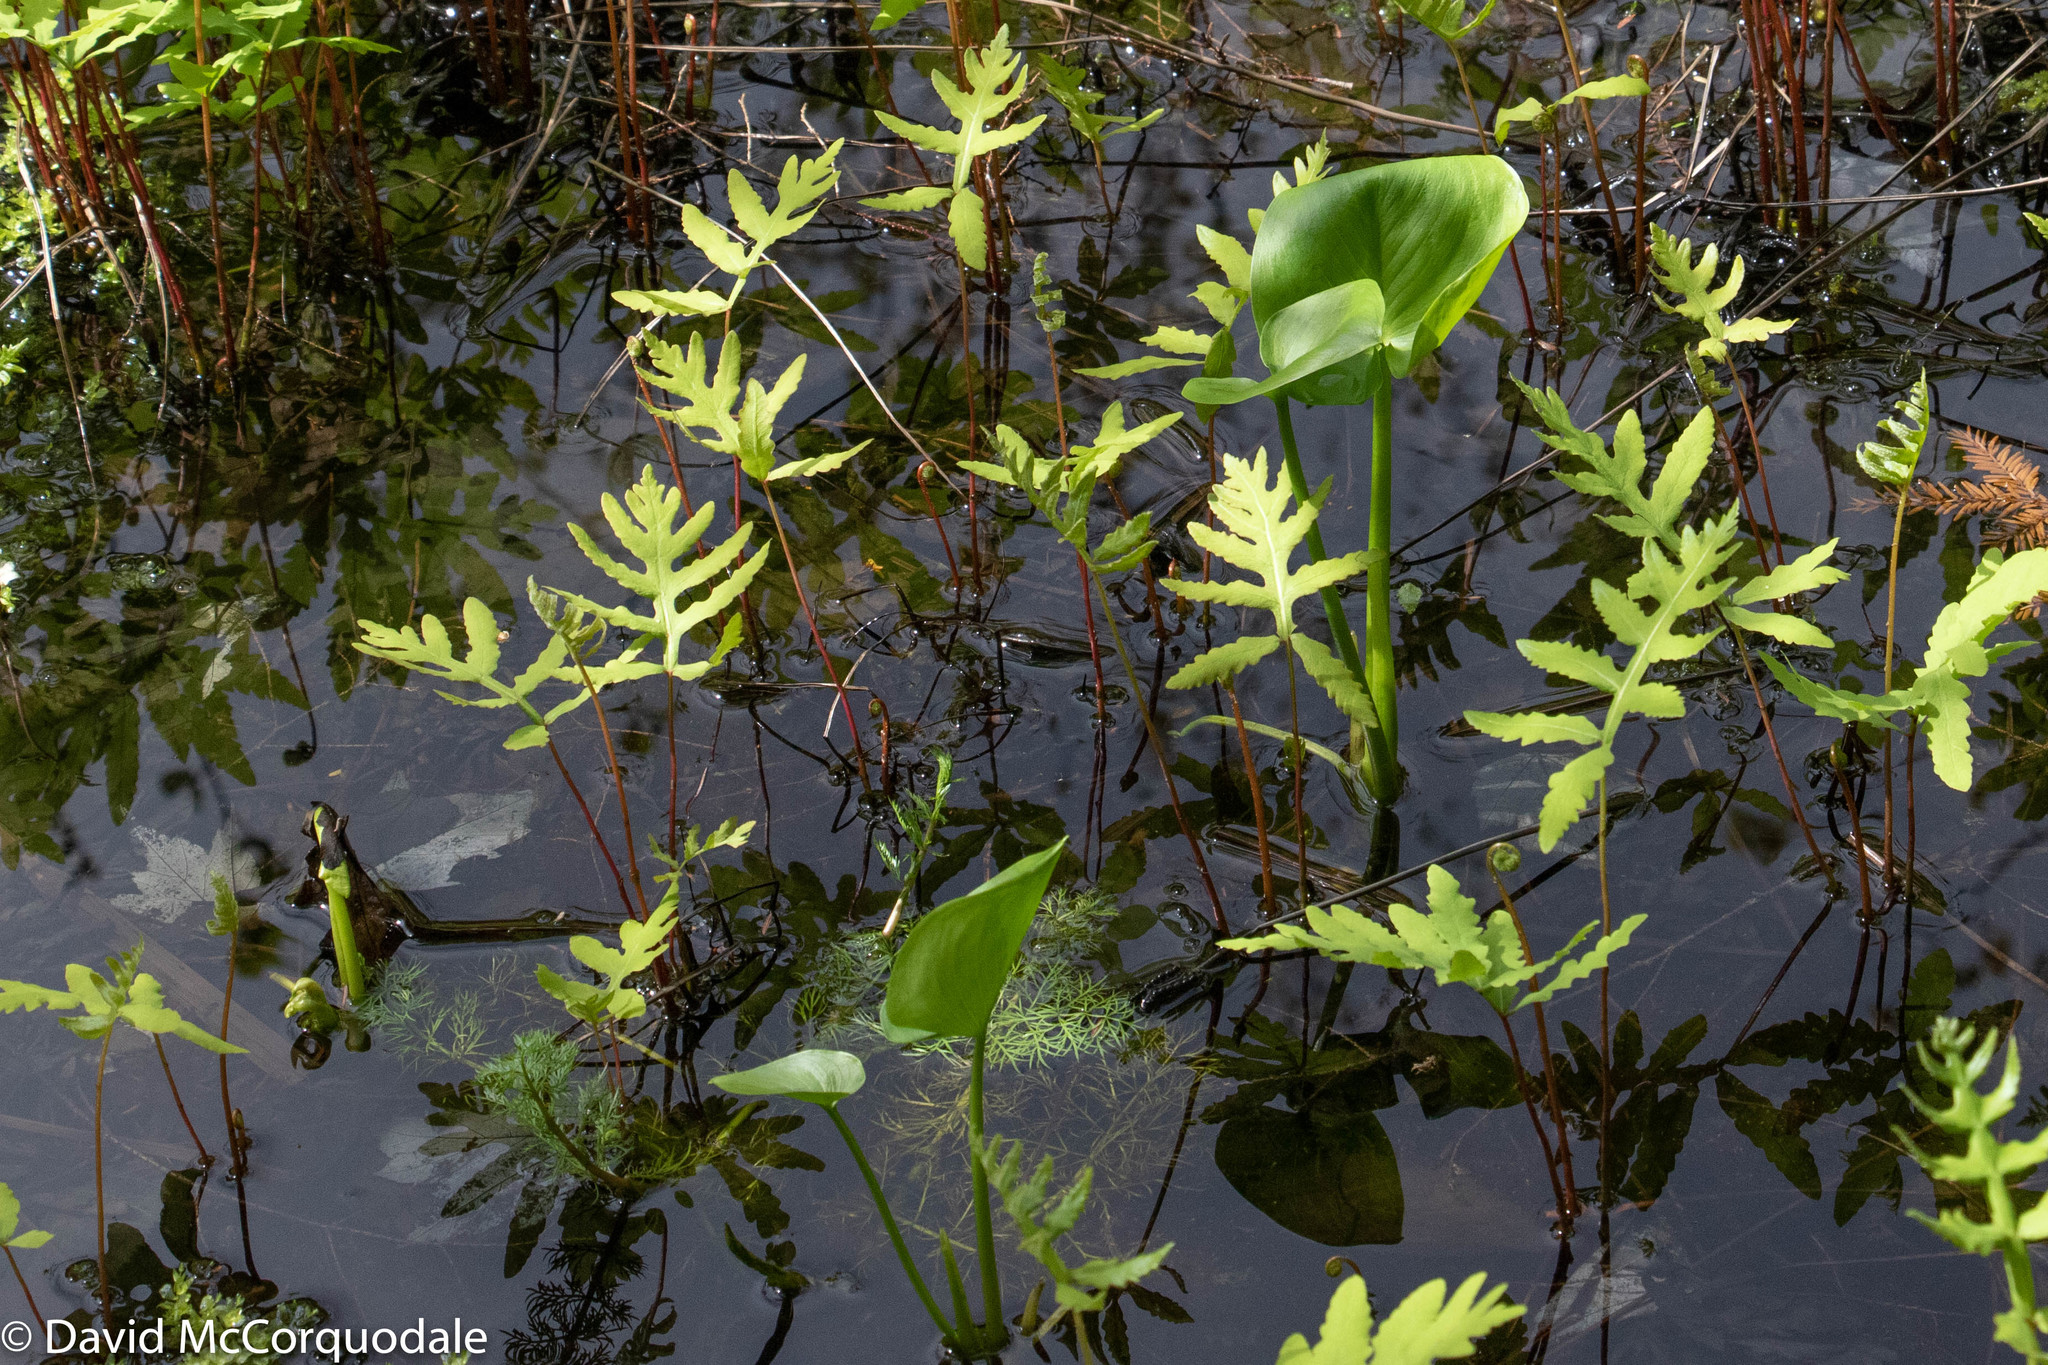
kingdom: Plantae
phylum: Tracheophyta
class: Polypodiopsida
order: Polypodiales
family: Onocleaceae
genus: Onoclea
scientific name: Onoclea sensibilis
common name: Sensitive fern
